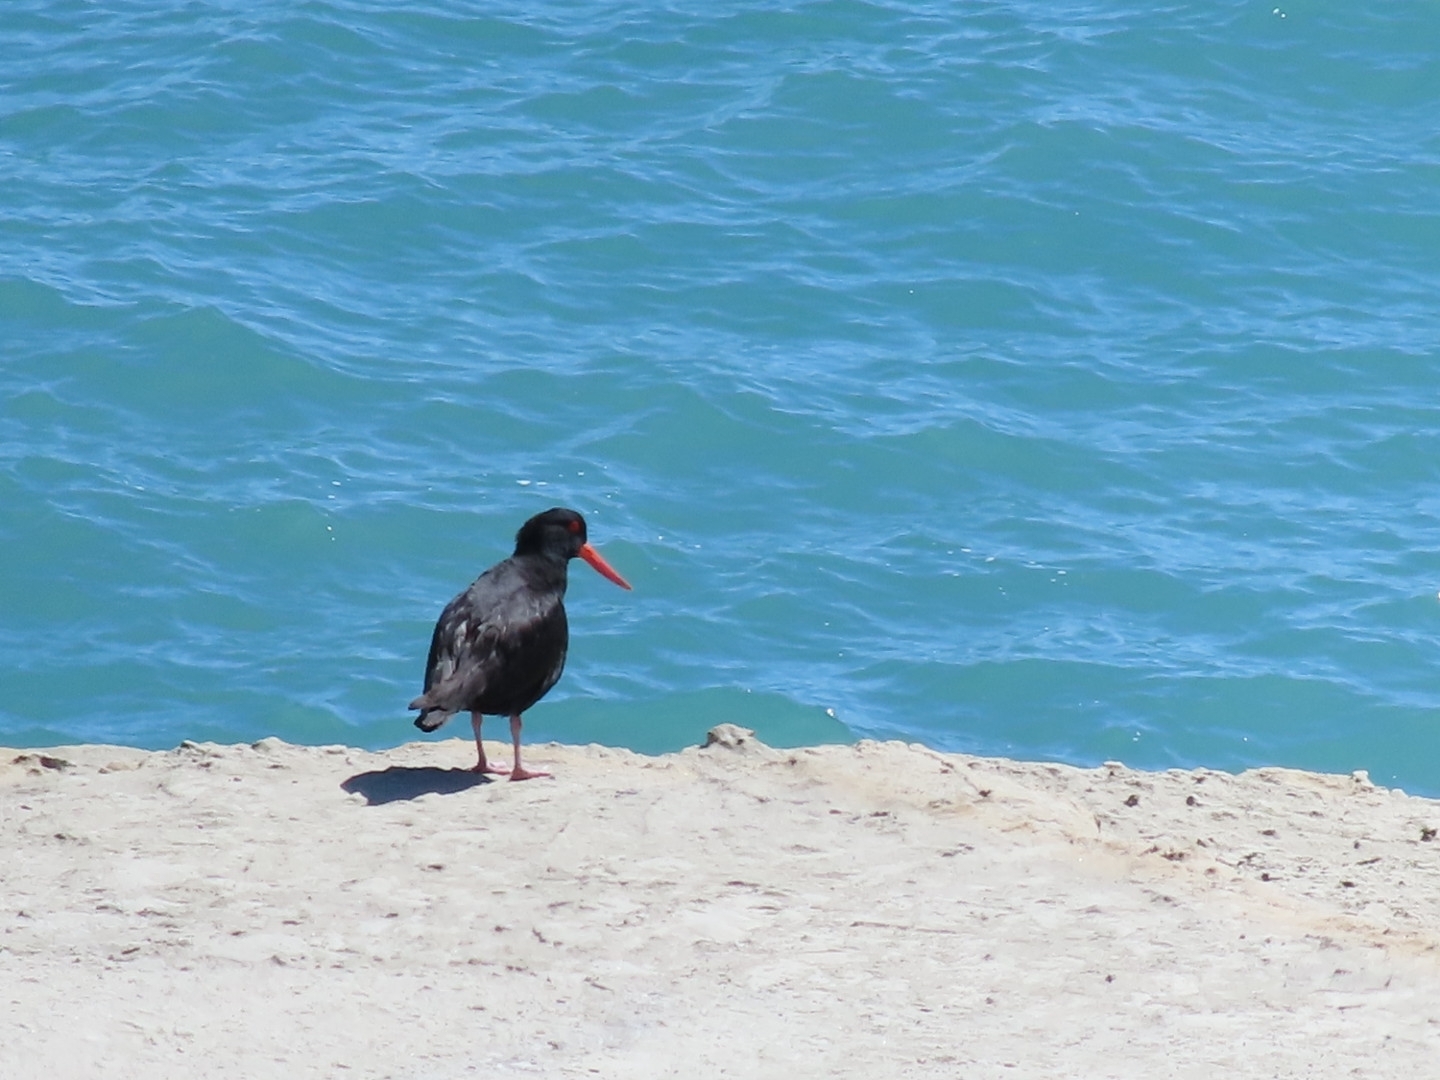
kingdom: Animalia
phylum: Chordata
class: Aves
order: Charadriiformes
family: Haematopodidae
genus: Haematopus
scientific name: Haematopus unicolor
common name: Variable oystercatcher
